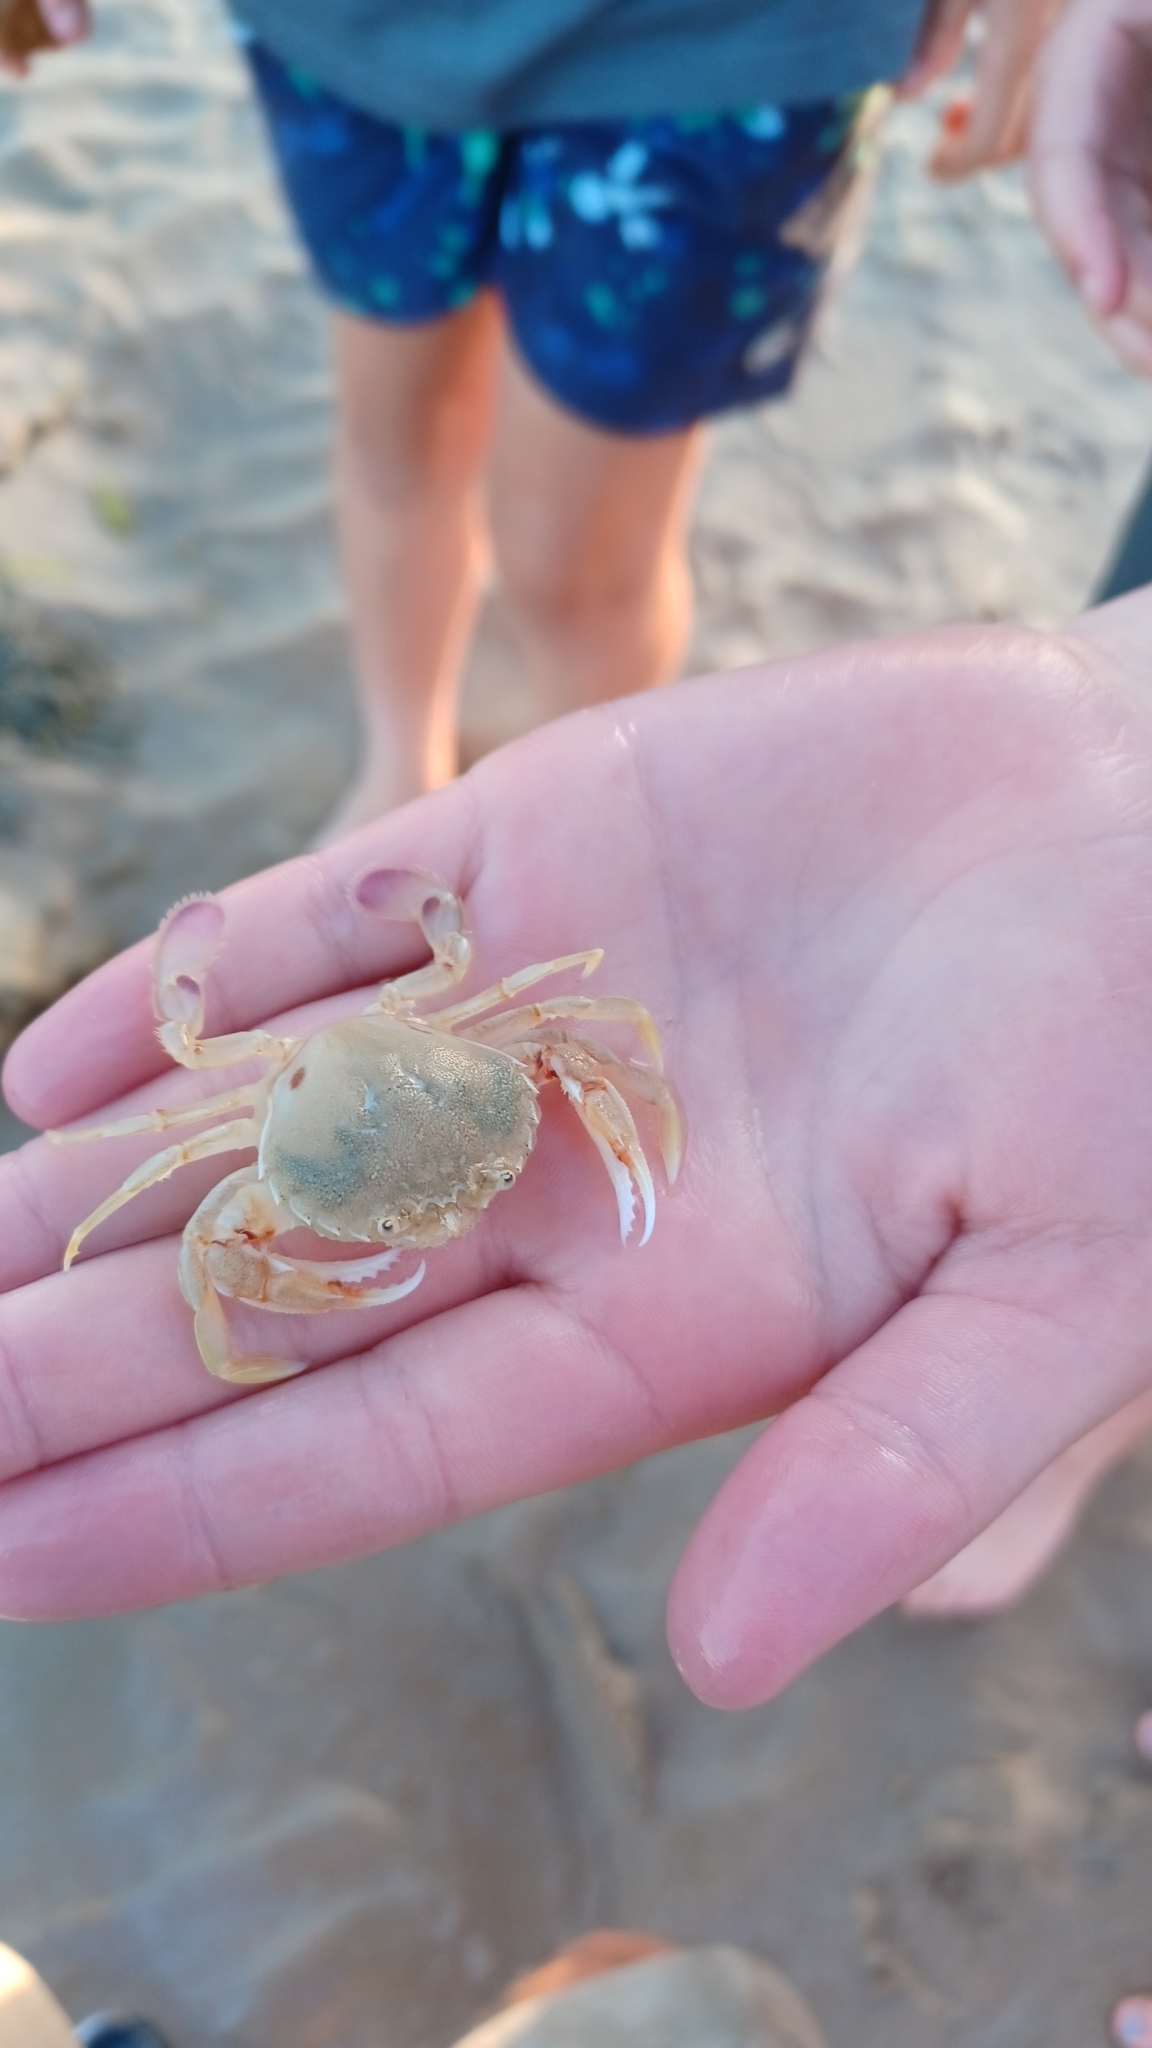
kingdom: Animalia
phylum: Arthropoda
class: Malacostraca
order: Decapoda
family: Ovalipidae
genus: Ovalipes
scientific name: Ovalipes australiensis
